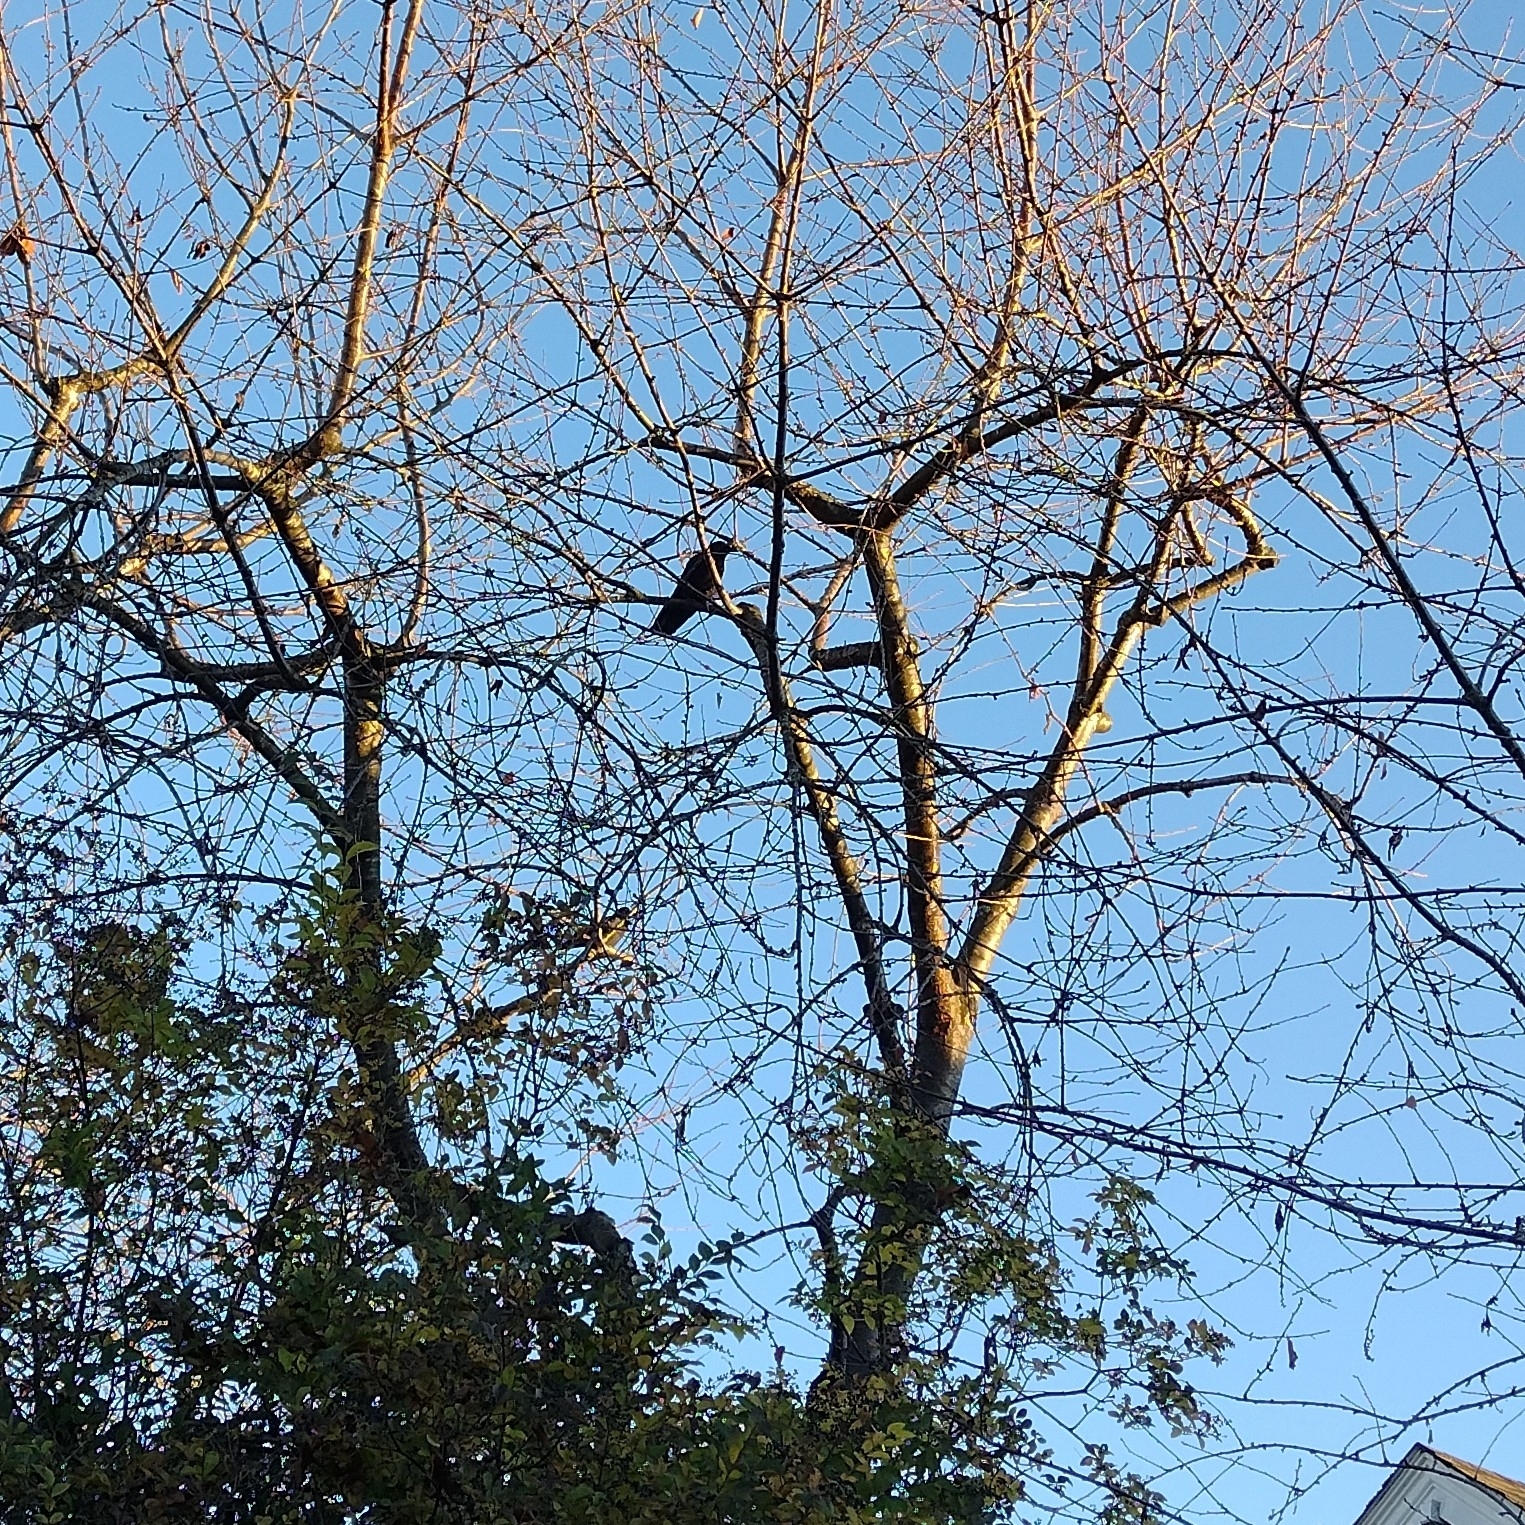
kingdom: Animalia
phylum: Chordata
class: Aves
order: Passeriformes
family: Corvidae
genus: Corvus
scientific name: Corvus brachyrhynchos
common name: American crow
